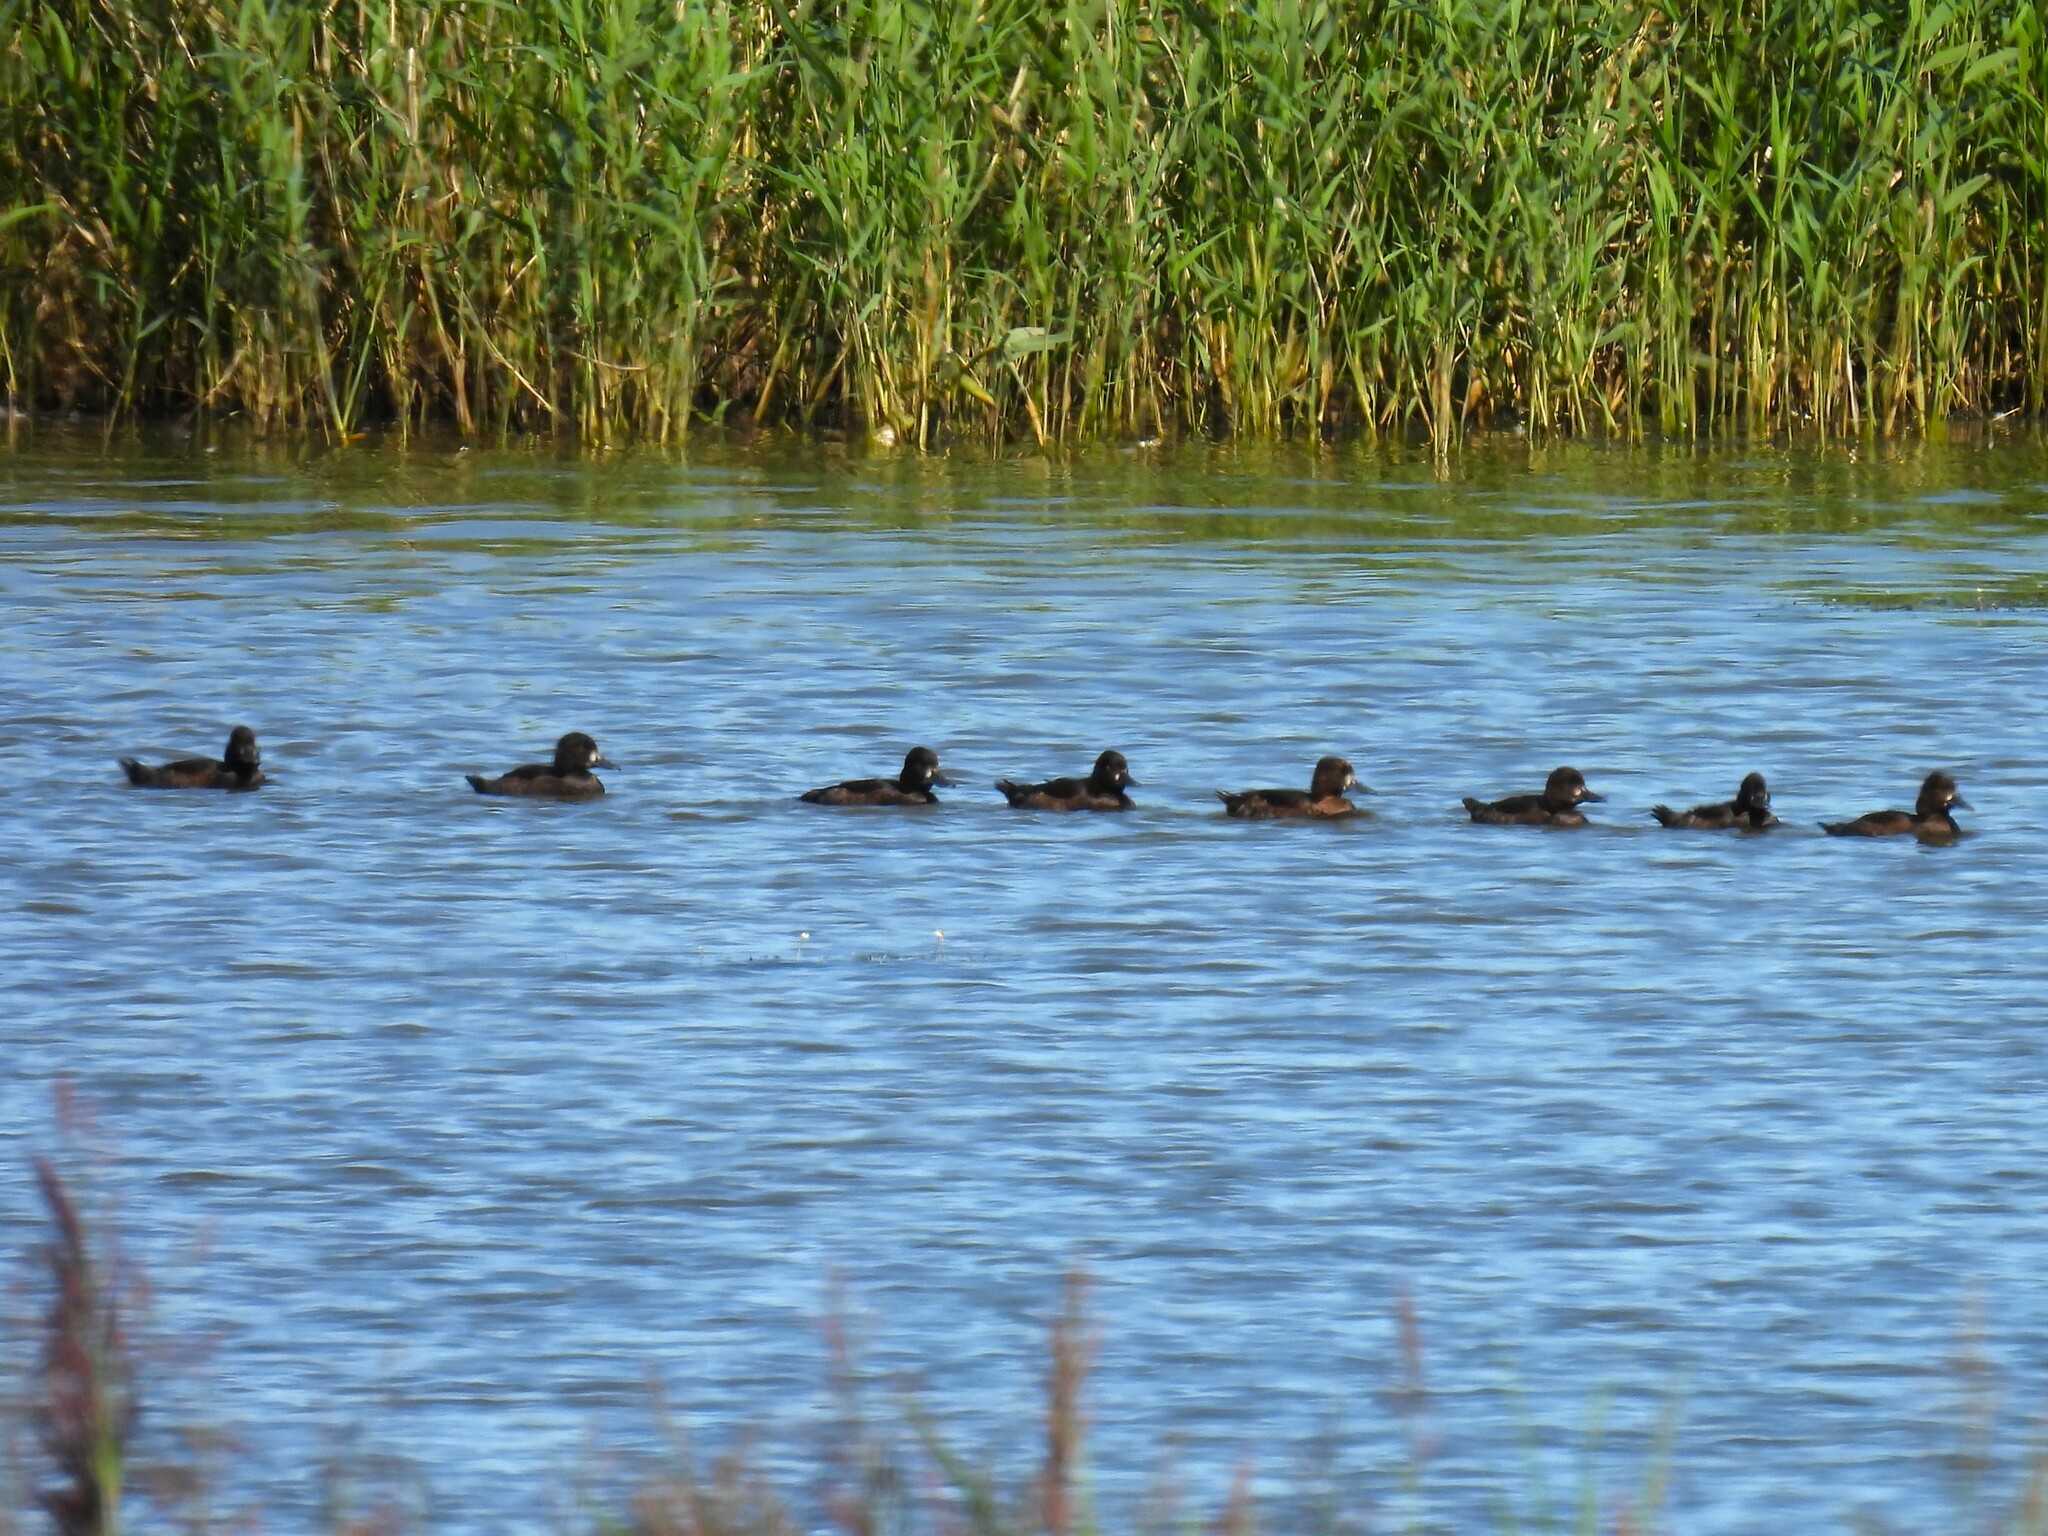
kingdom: Animalia
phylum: Chordata
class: Aves
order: Anseriformes
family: Anatidae
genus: Aythya
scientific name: Aythya fuligula
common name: Tufted duck
